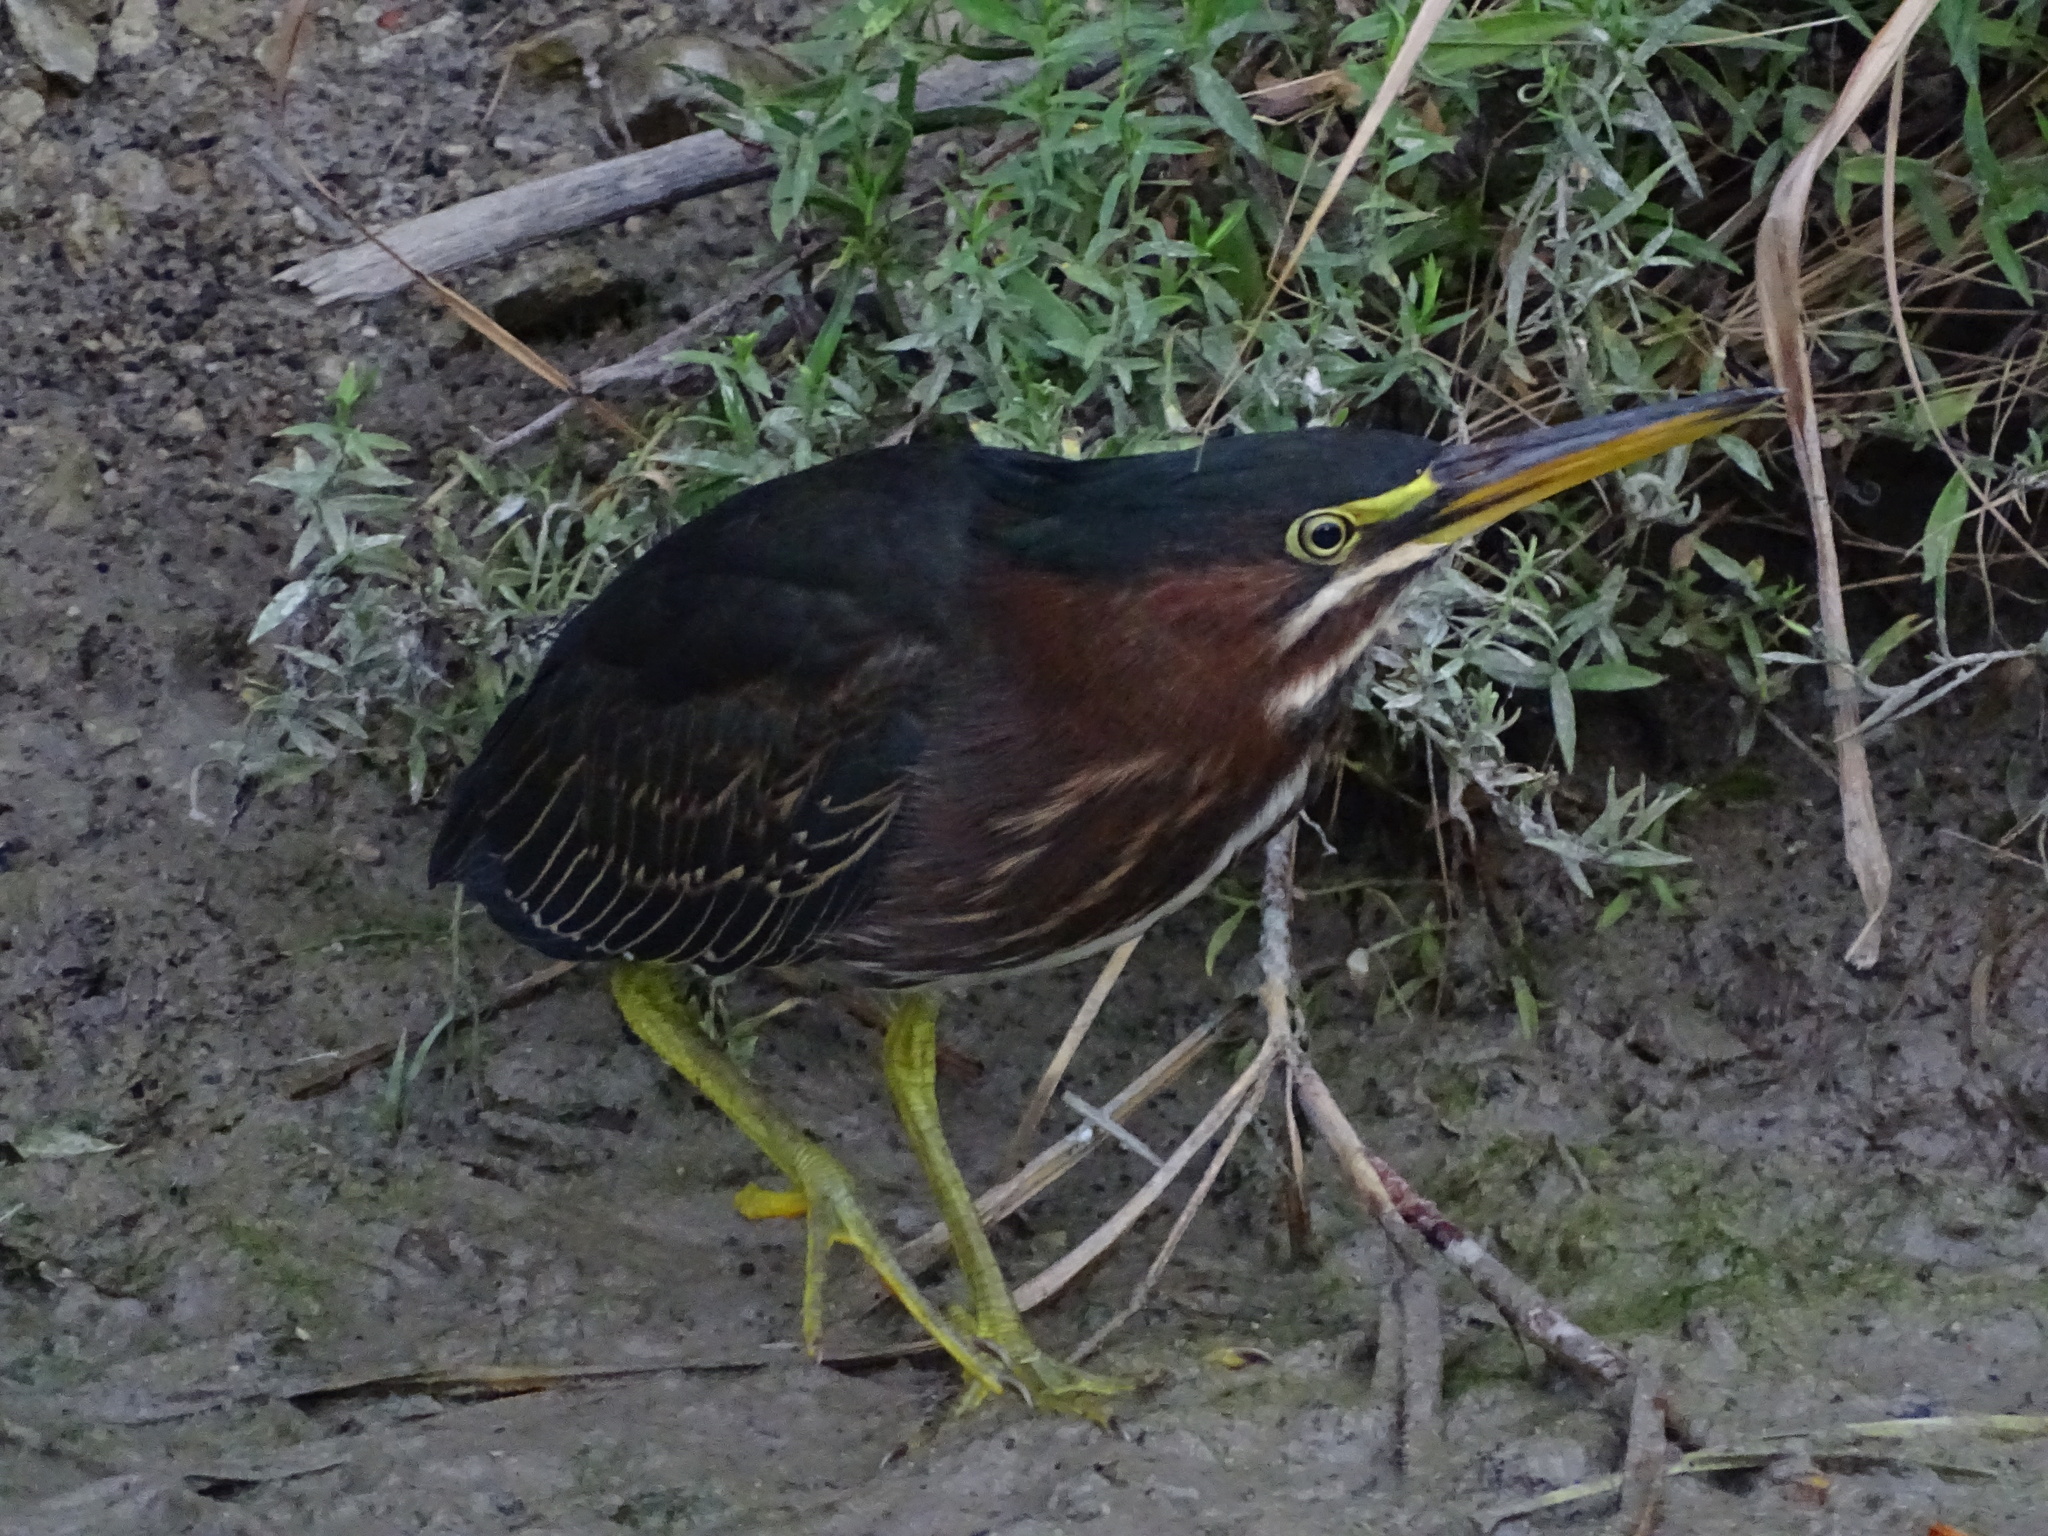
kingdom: Animalia
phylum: Chordata
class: Aves
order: Pelecaniformes
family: Ardeidae
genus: Butorides
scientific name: Butorides virescens
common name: Green heron
